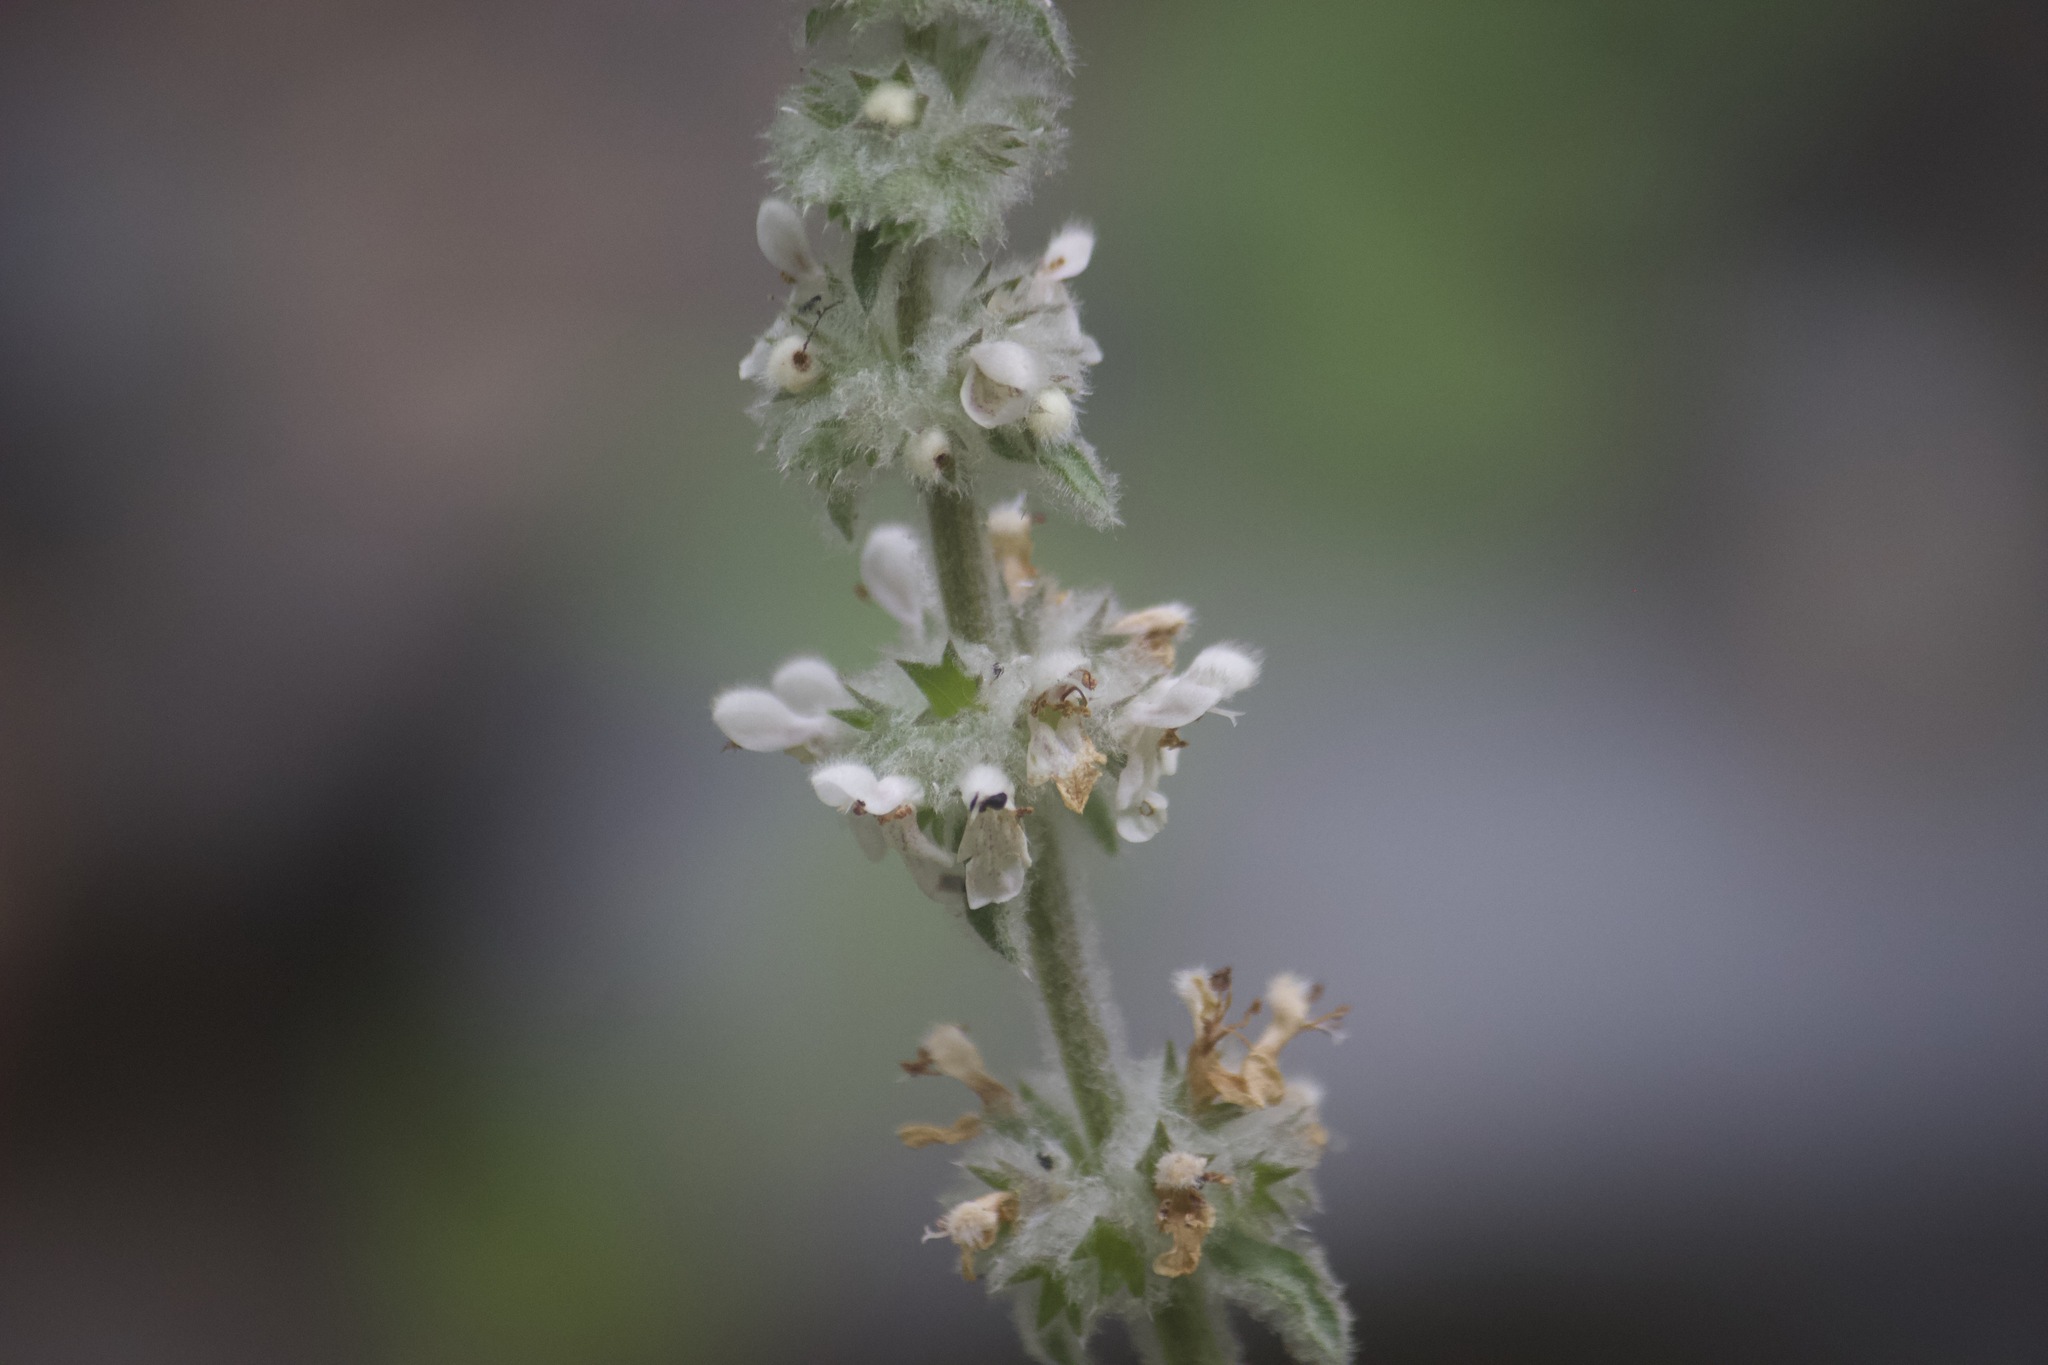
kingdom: Plantae
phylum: Tracheophyta
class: Magnoliopsida
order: Lamiales
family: Lamiaceae
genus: Stachys
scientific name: Stachys albens
